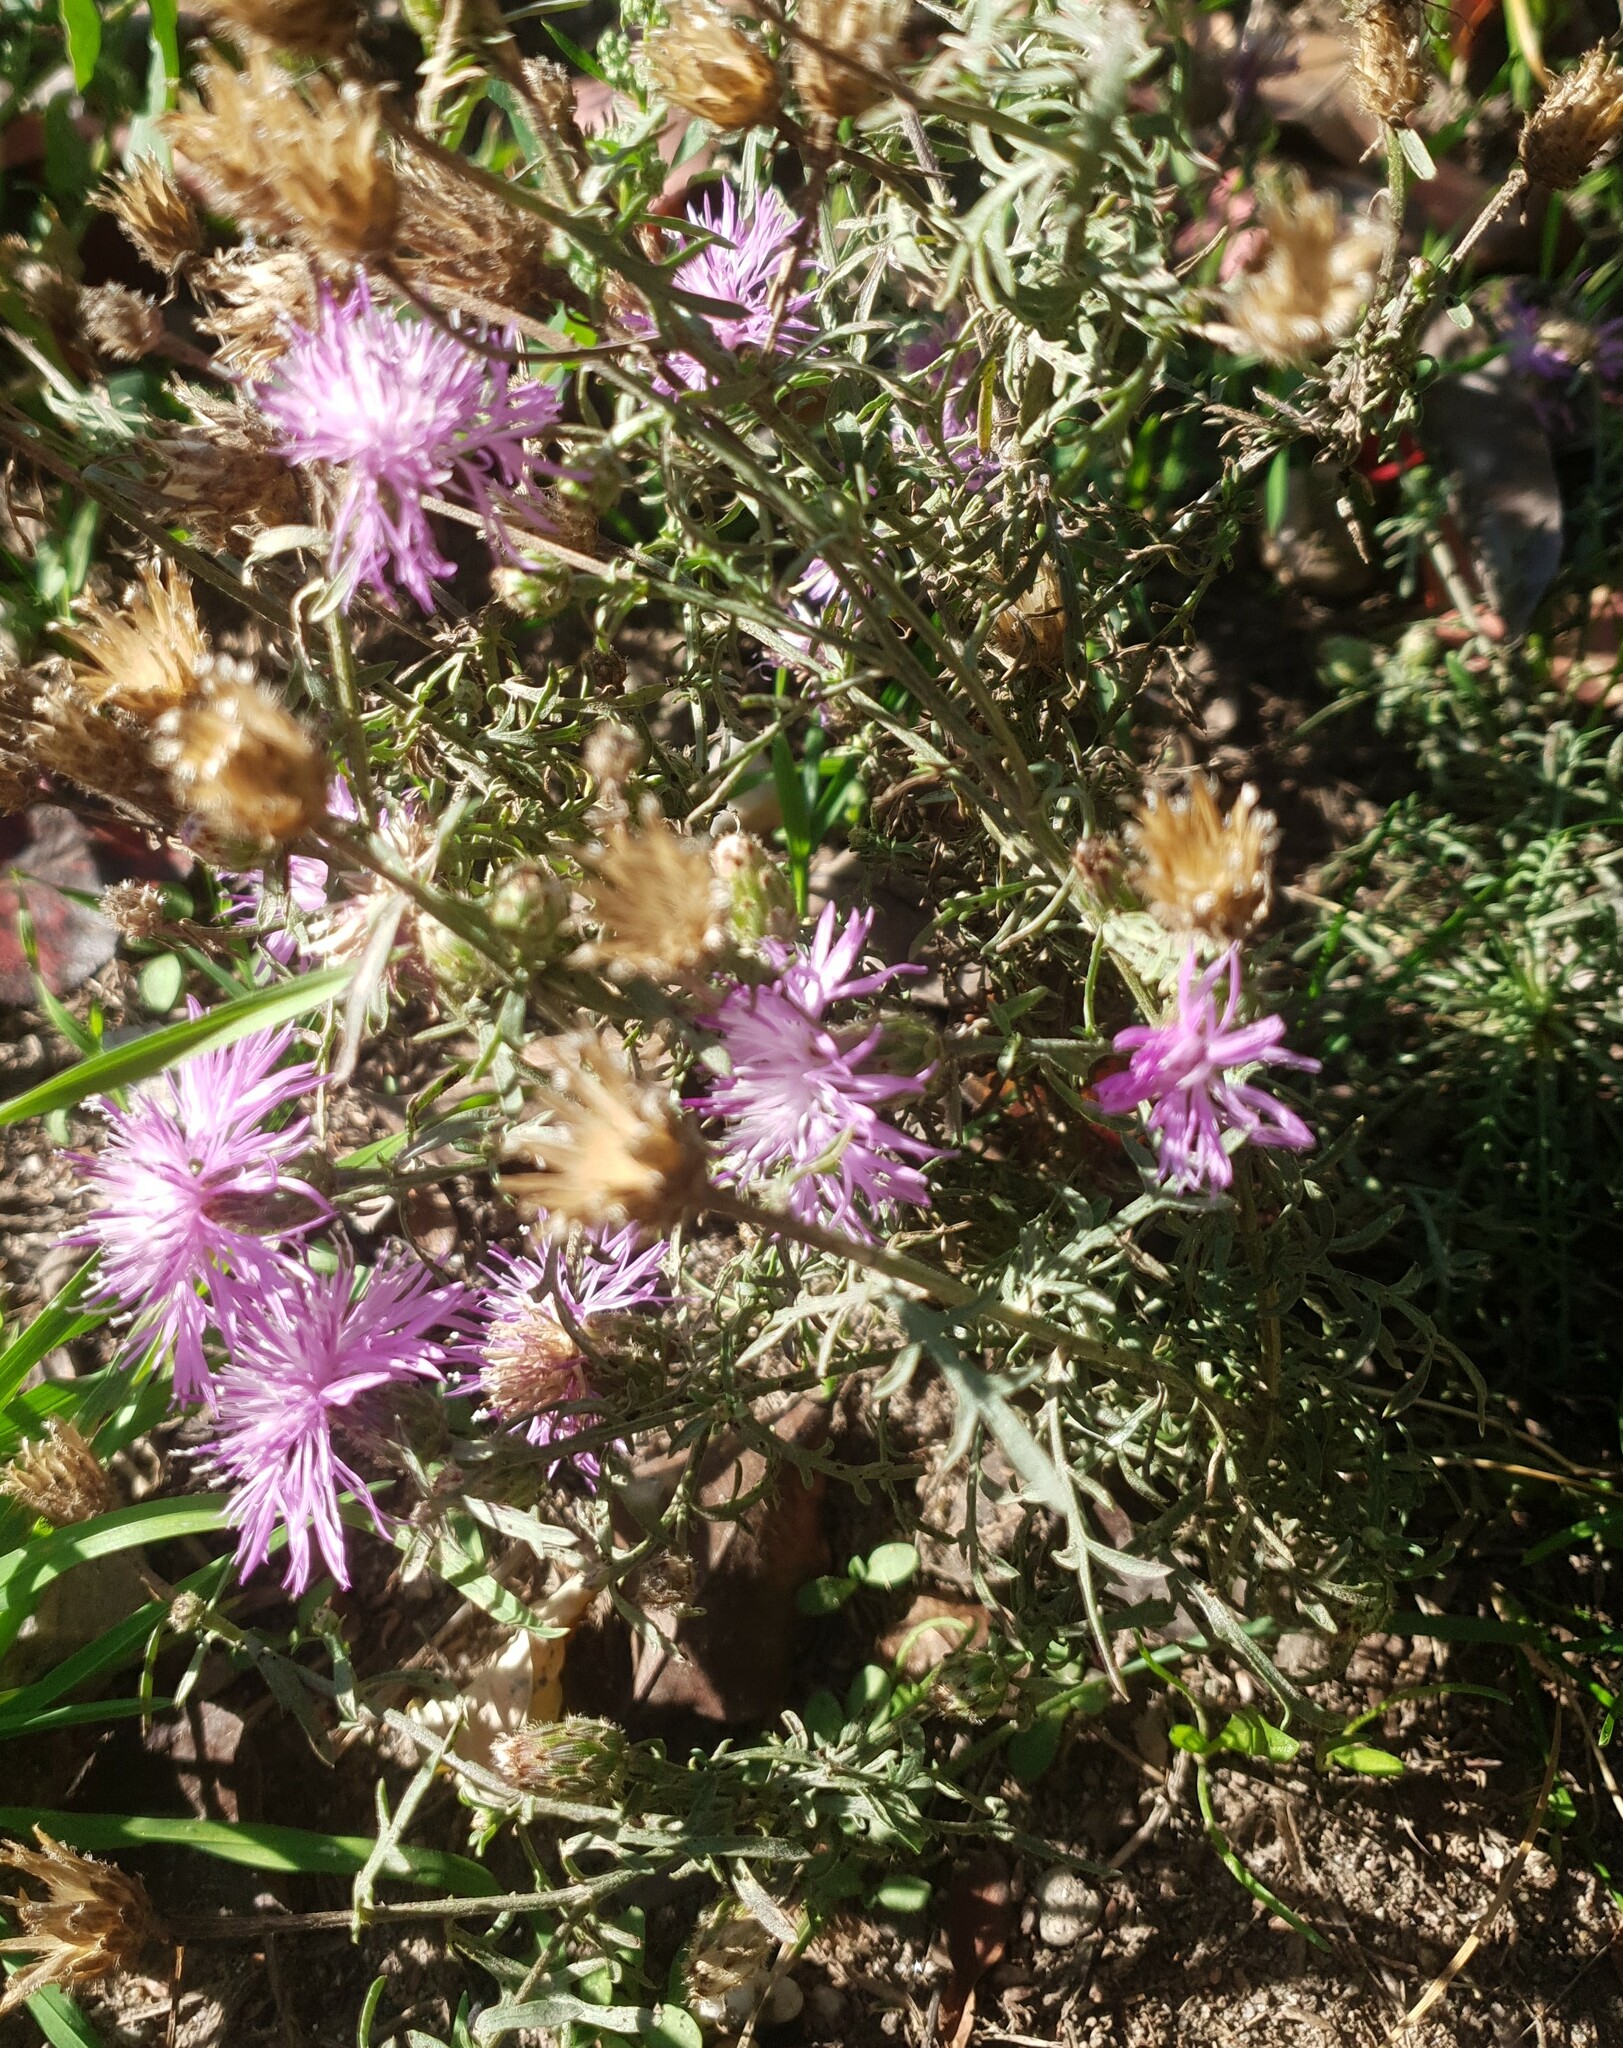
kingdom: Plantae
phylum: Tracheophyta
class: Magnoliopsida
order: Asterales
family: Asteraceae
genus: Centaurea
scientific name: Centaurea stoebe
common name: Spotted knapweed
